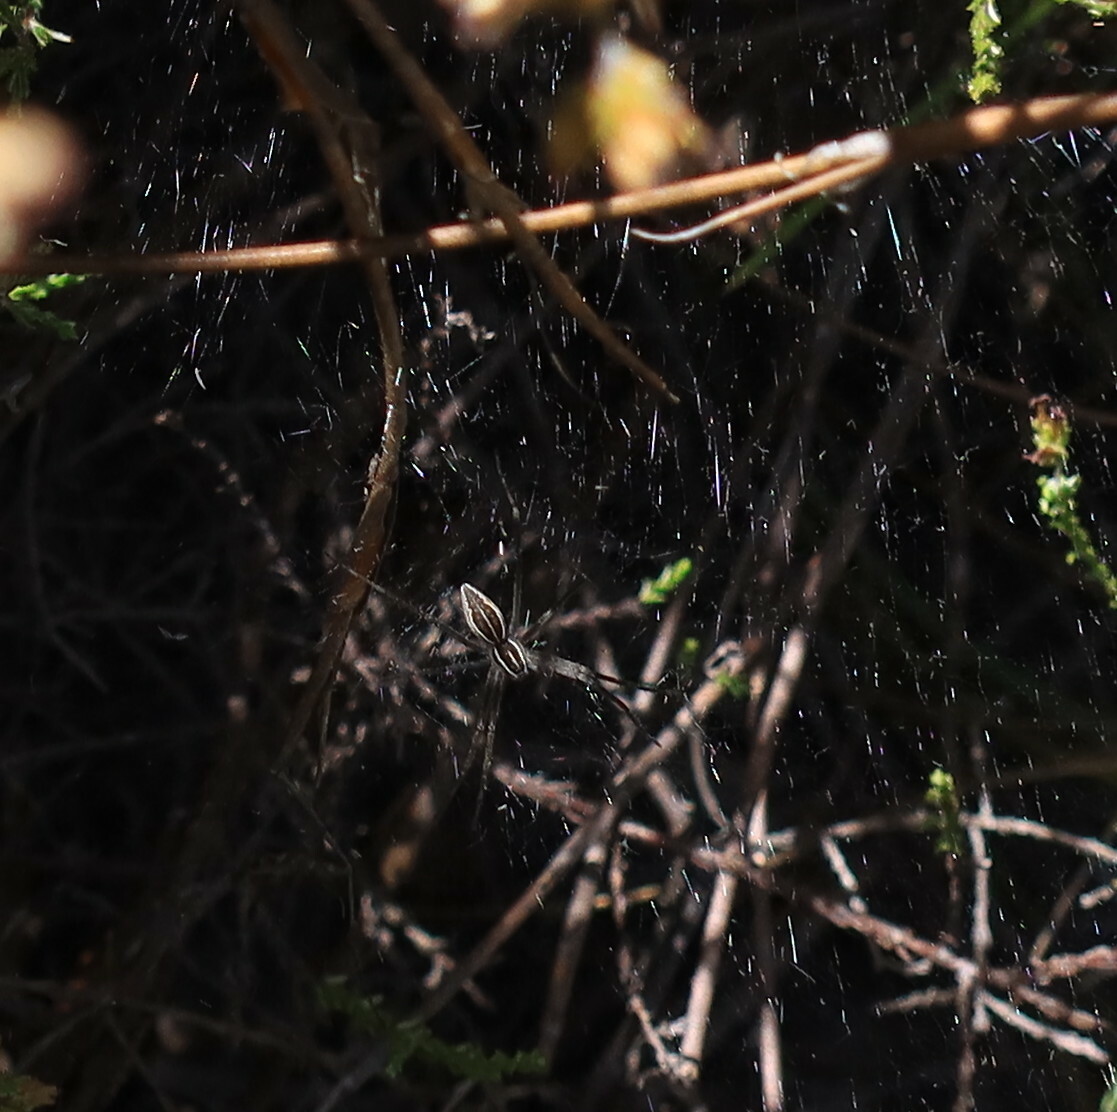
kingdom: Animalia
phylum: Arthropoda
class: Arachnida
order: Araneae
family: Pisauridae
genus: Euprosthenopsis
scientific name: Euprosthenopsis pulchella
